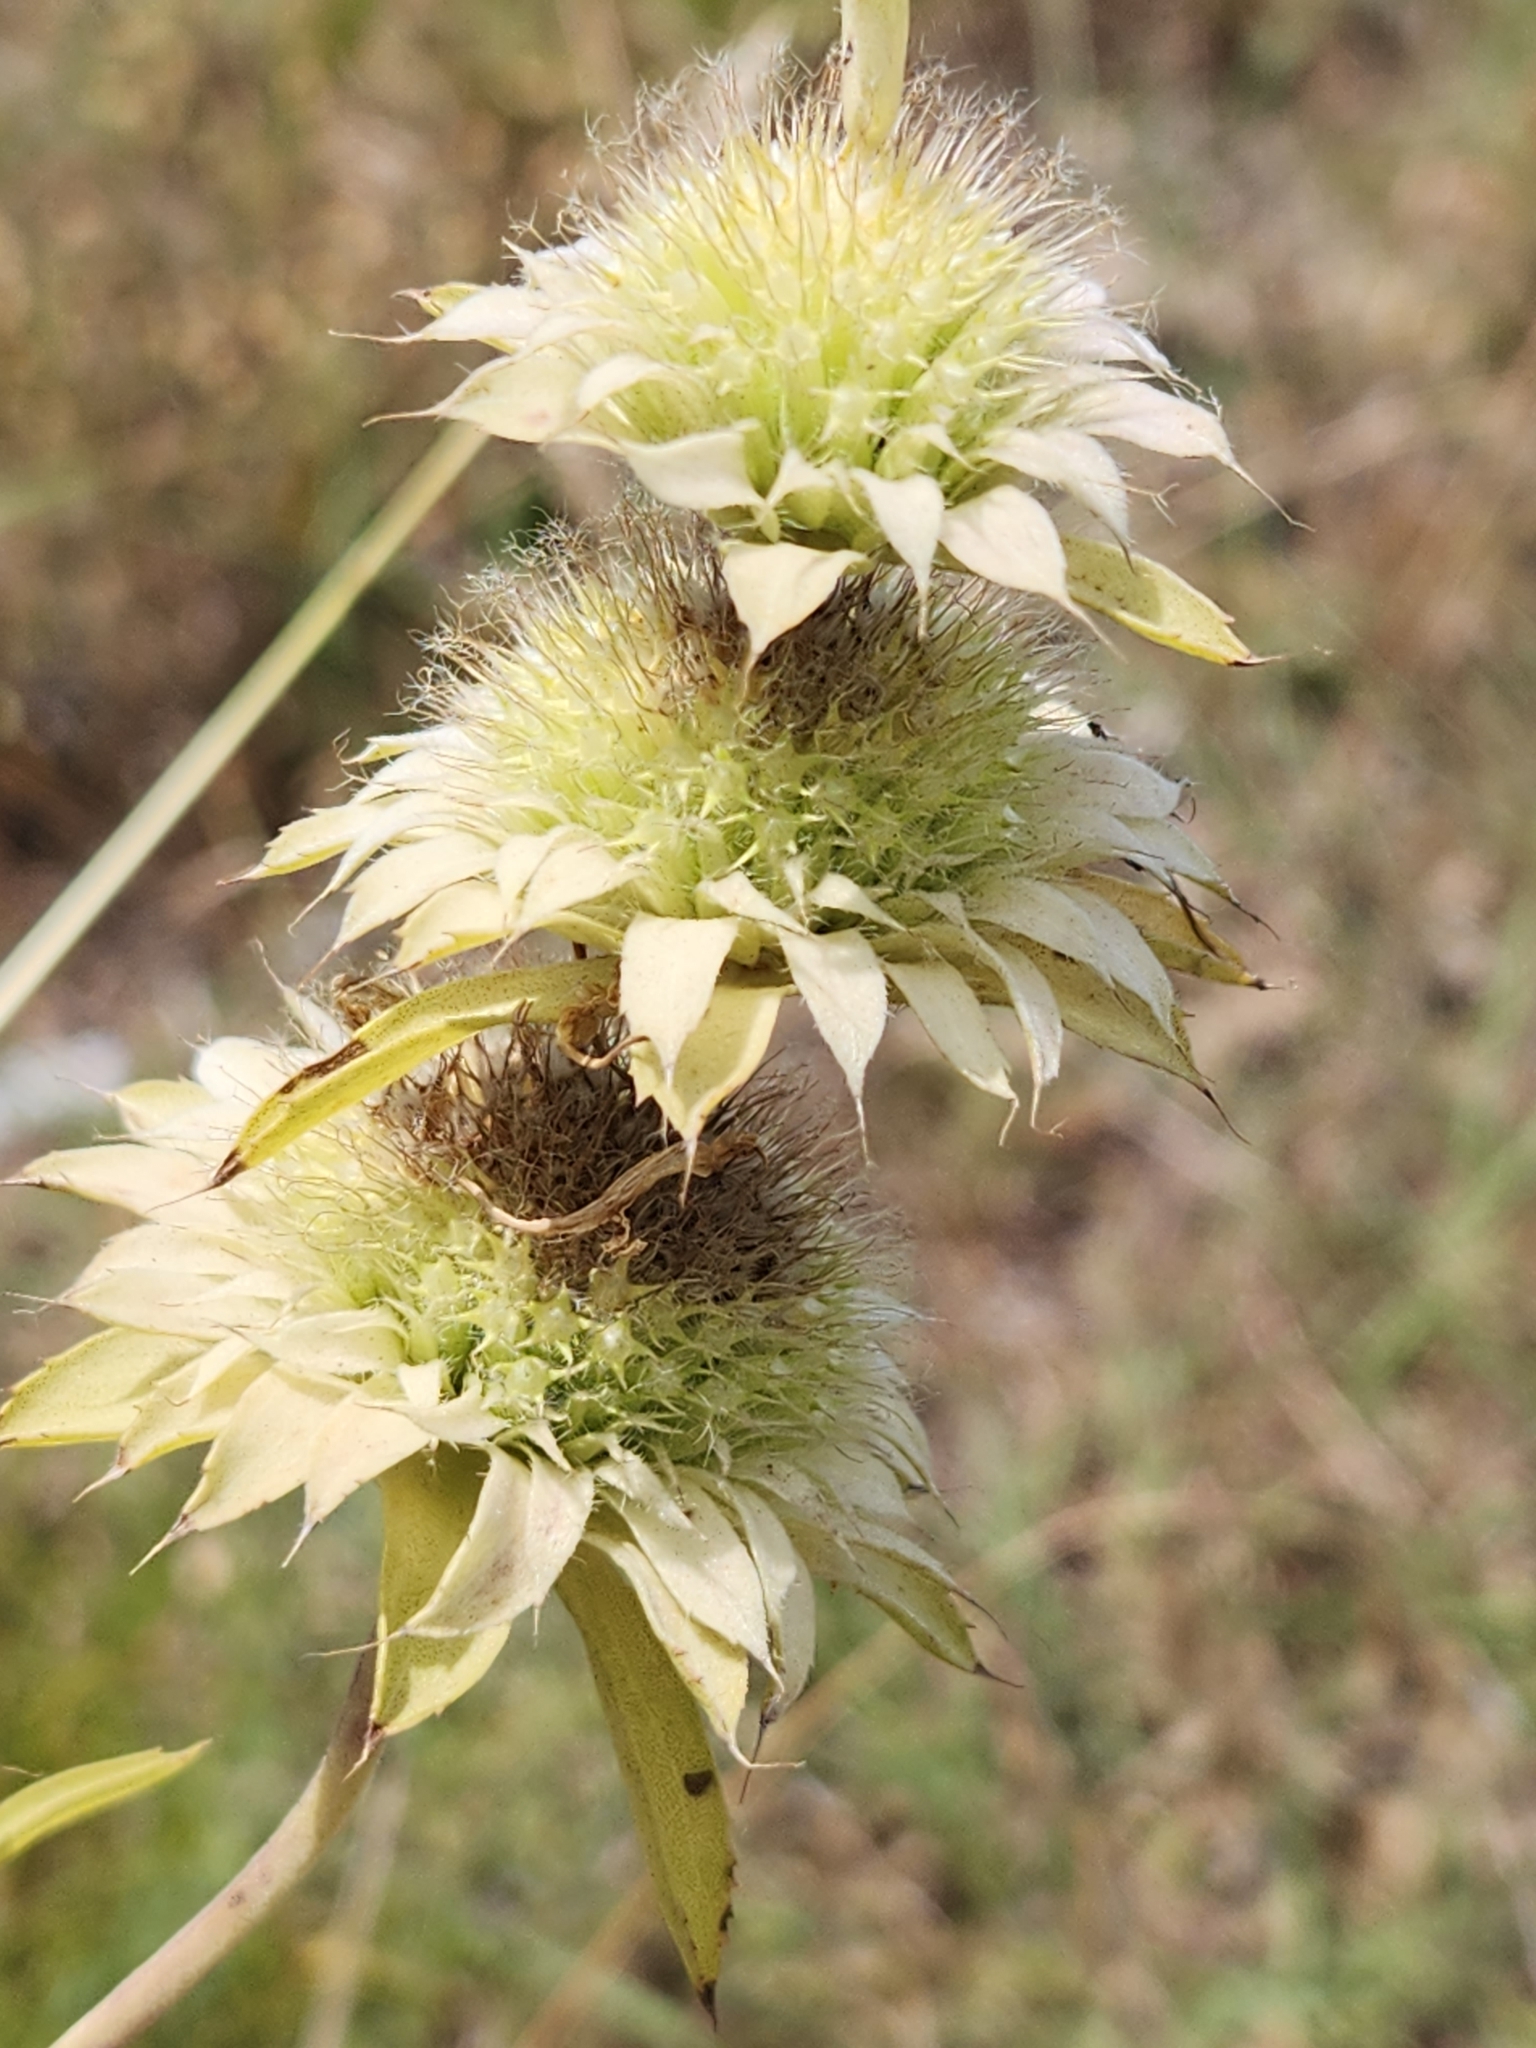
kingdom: Plantae
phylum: Tracheophyta
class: Magnoliopsida
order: Lamiales
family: Lamiaceae
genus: Monarda
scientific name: Monarda citriodora
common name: Lemon beebalm
